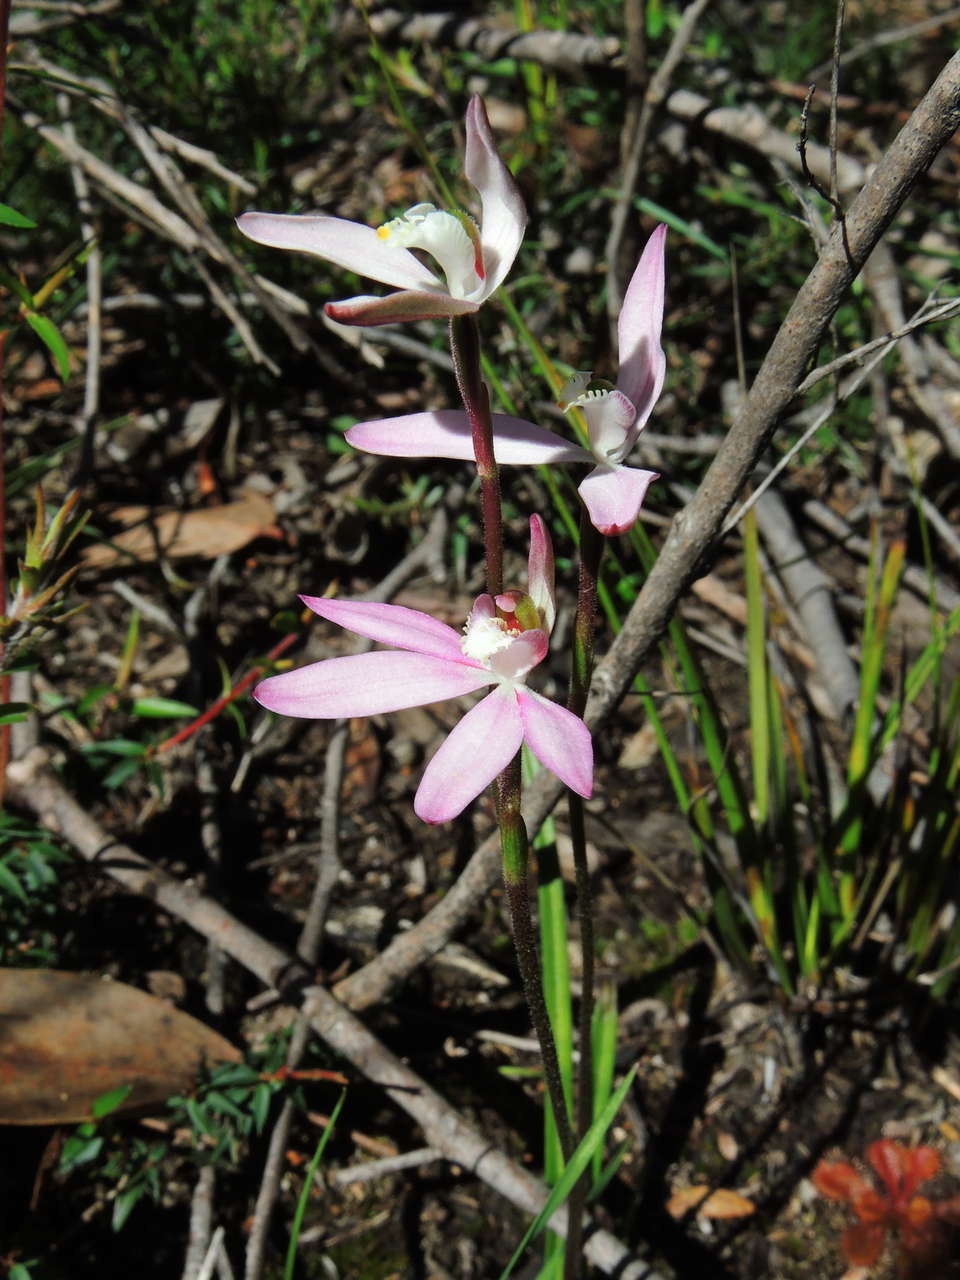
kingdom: Plantae
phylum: Tracheophyta
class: Liliopsida
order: Asparagales
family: Orchidaceae
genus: Caladenia
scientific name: Caladenia catenata
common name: White caladenia
